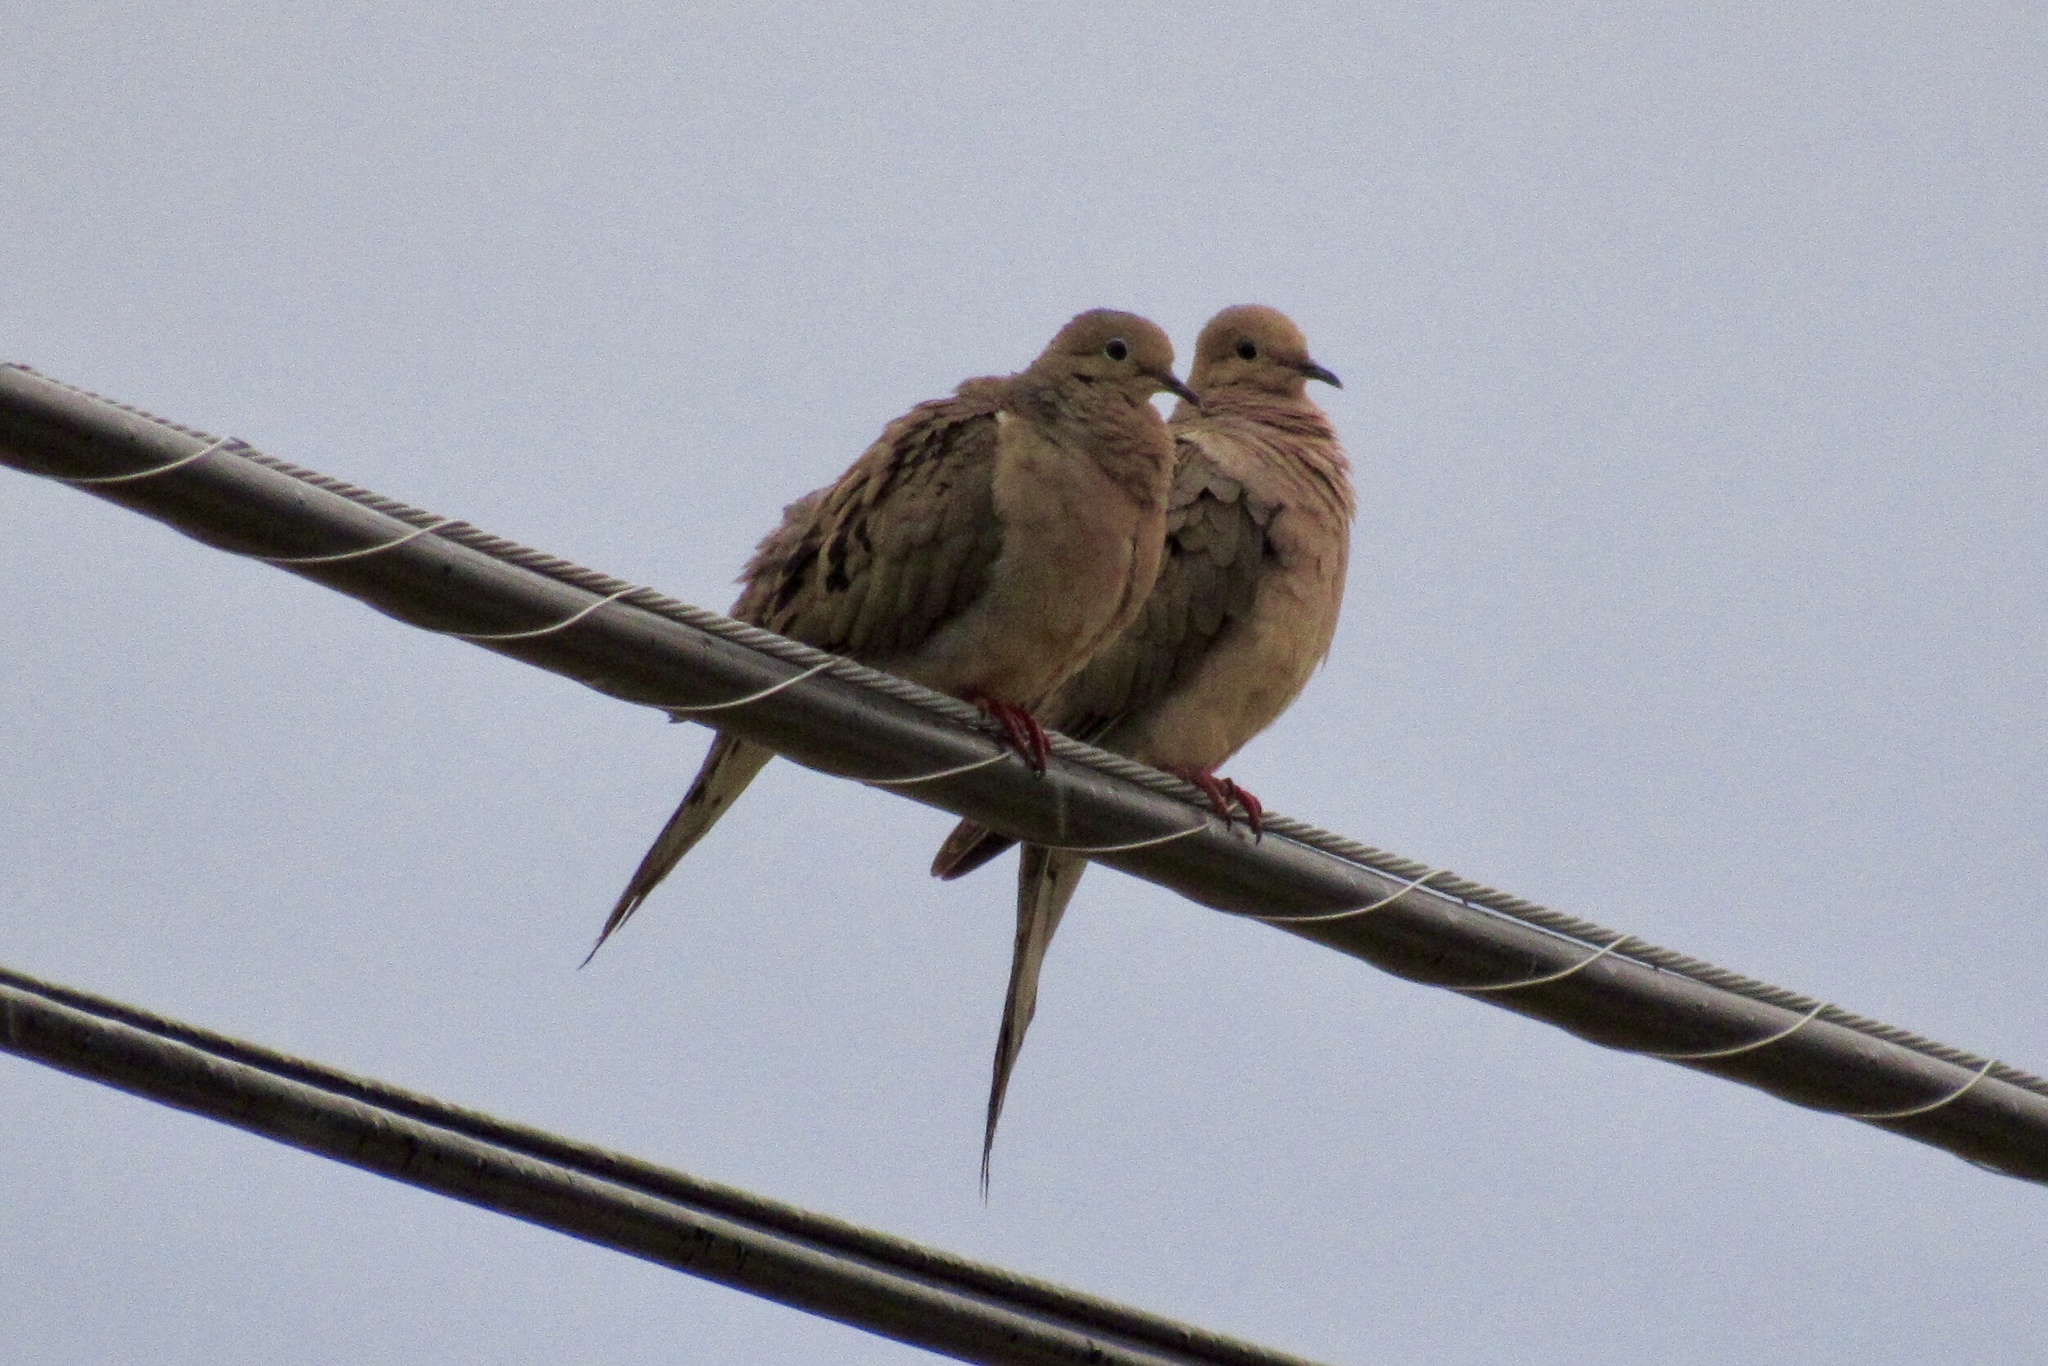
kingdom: Animalia
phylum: Chordata
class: Aves
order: Columbiformes
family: Columbidae
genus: Zenaida
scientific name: Zenaida macroura
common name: Mourning dove
